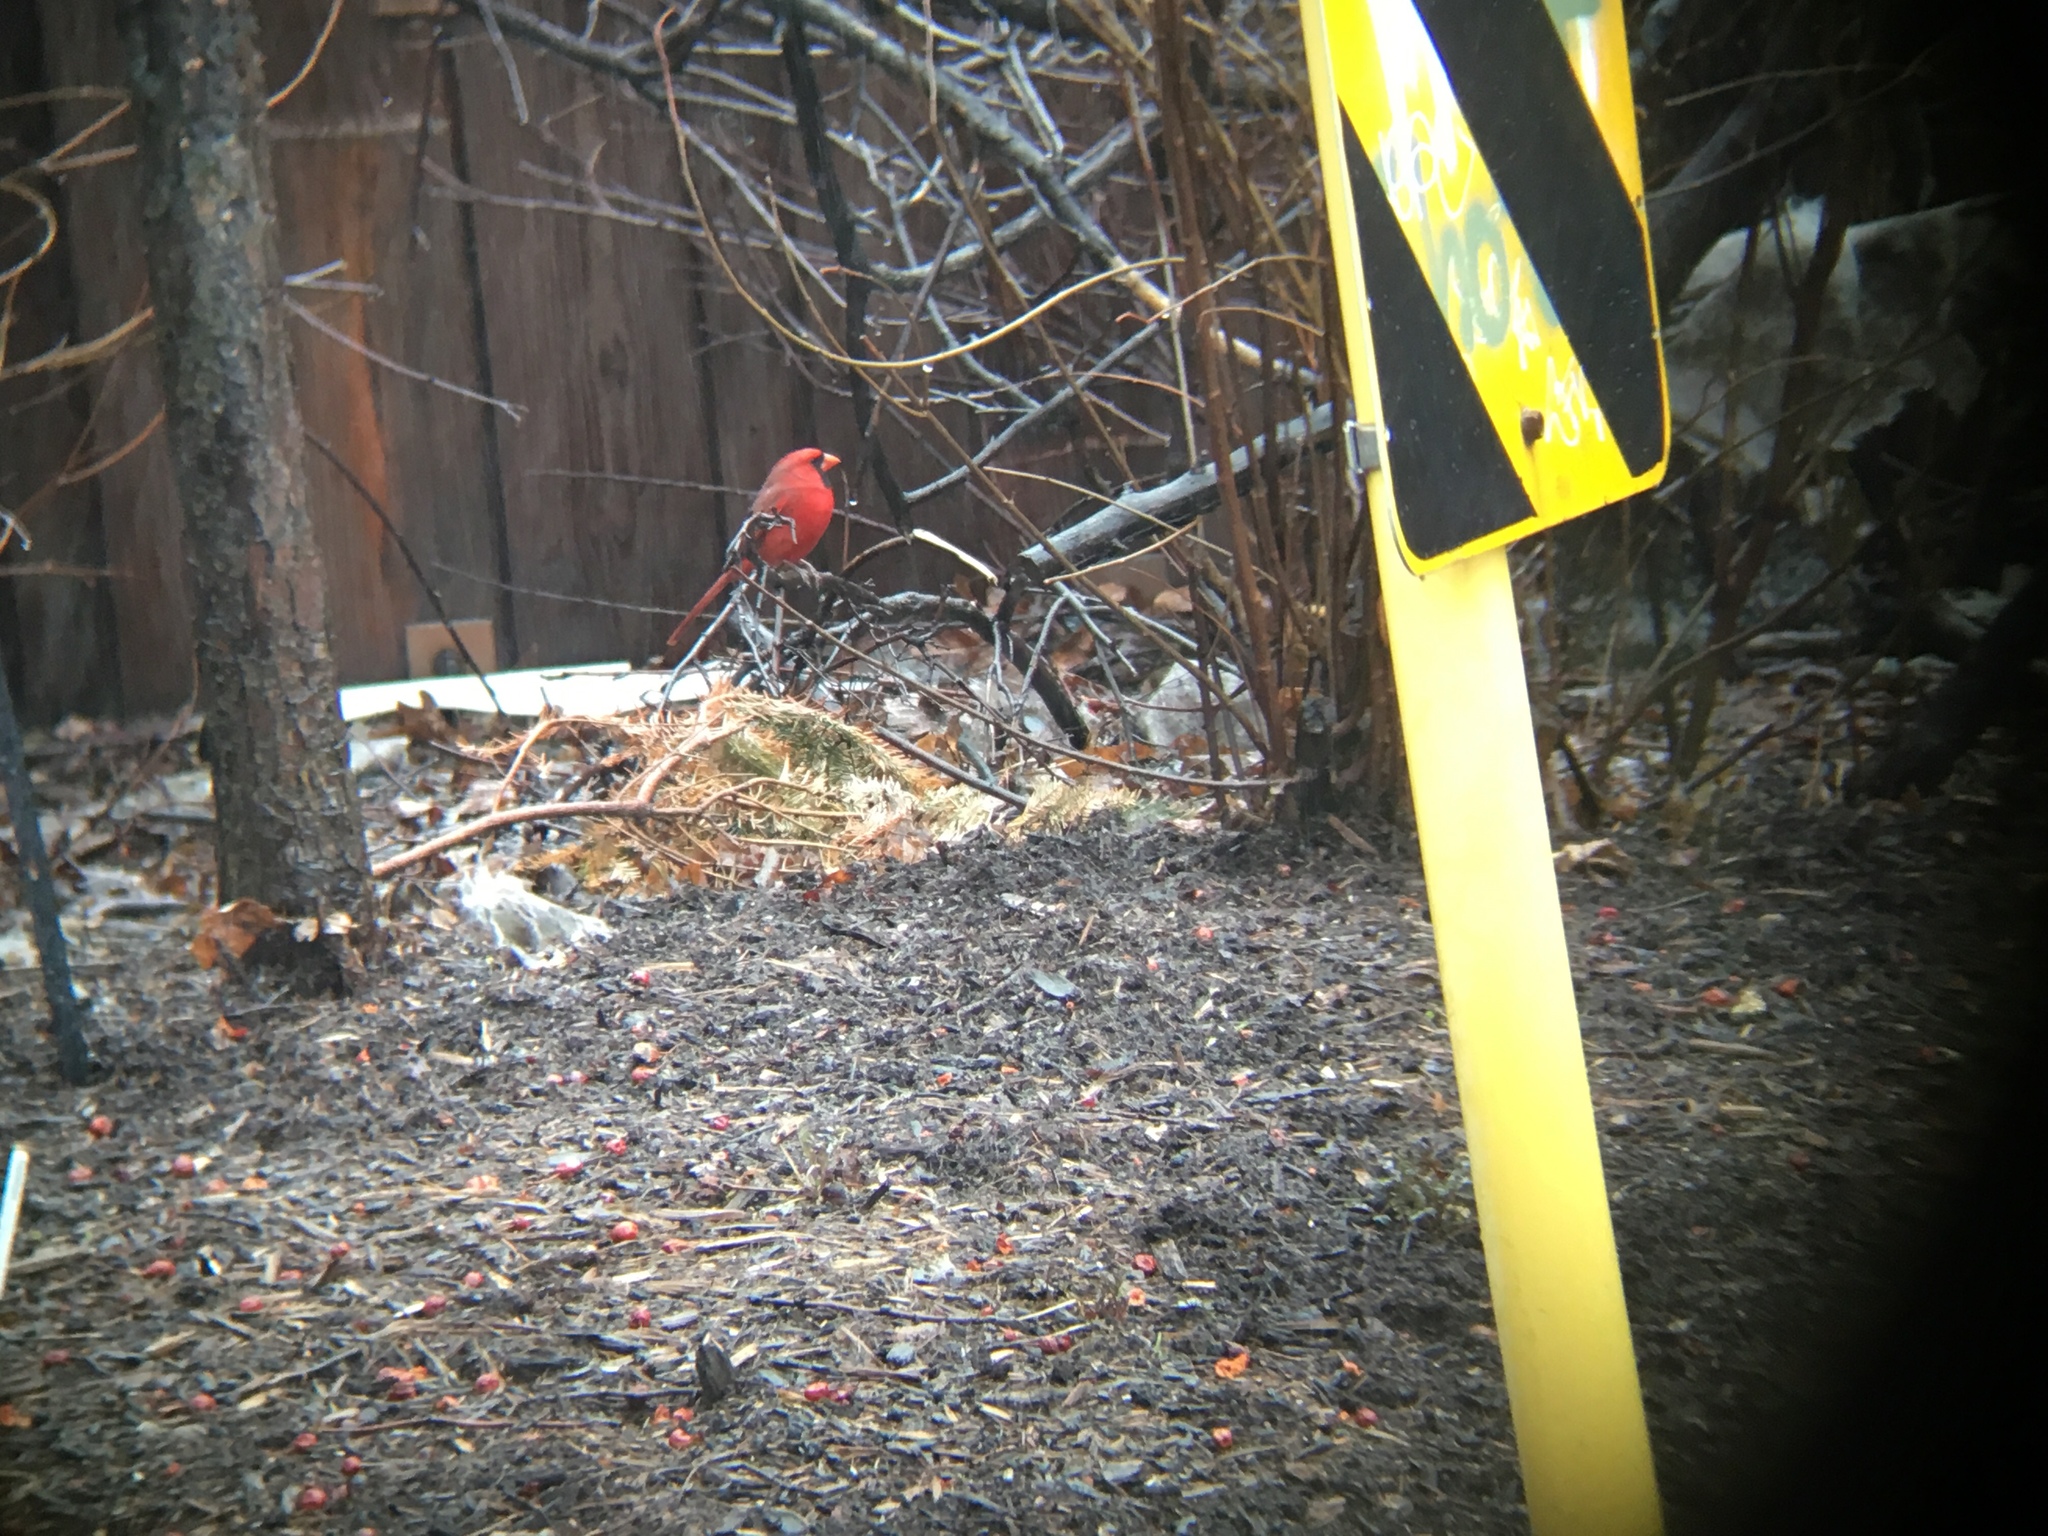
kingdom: Animalia
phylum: Chordata
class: Aves
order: Passeriformes
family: Cardinalidae
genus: Cardinalis
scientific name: Cardinalis cardinalis
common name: Northern cardinal
